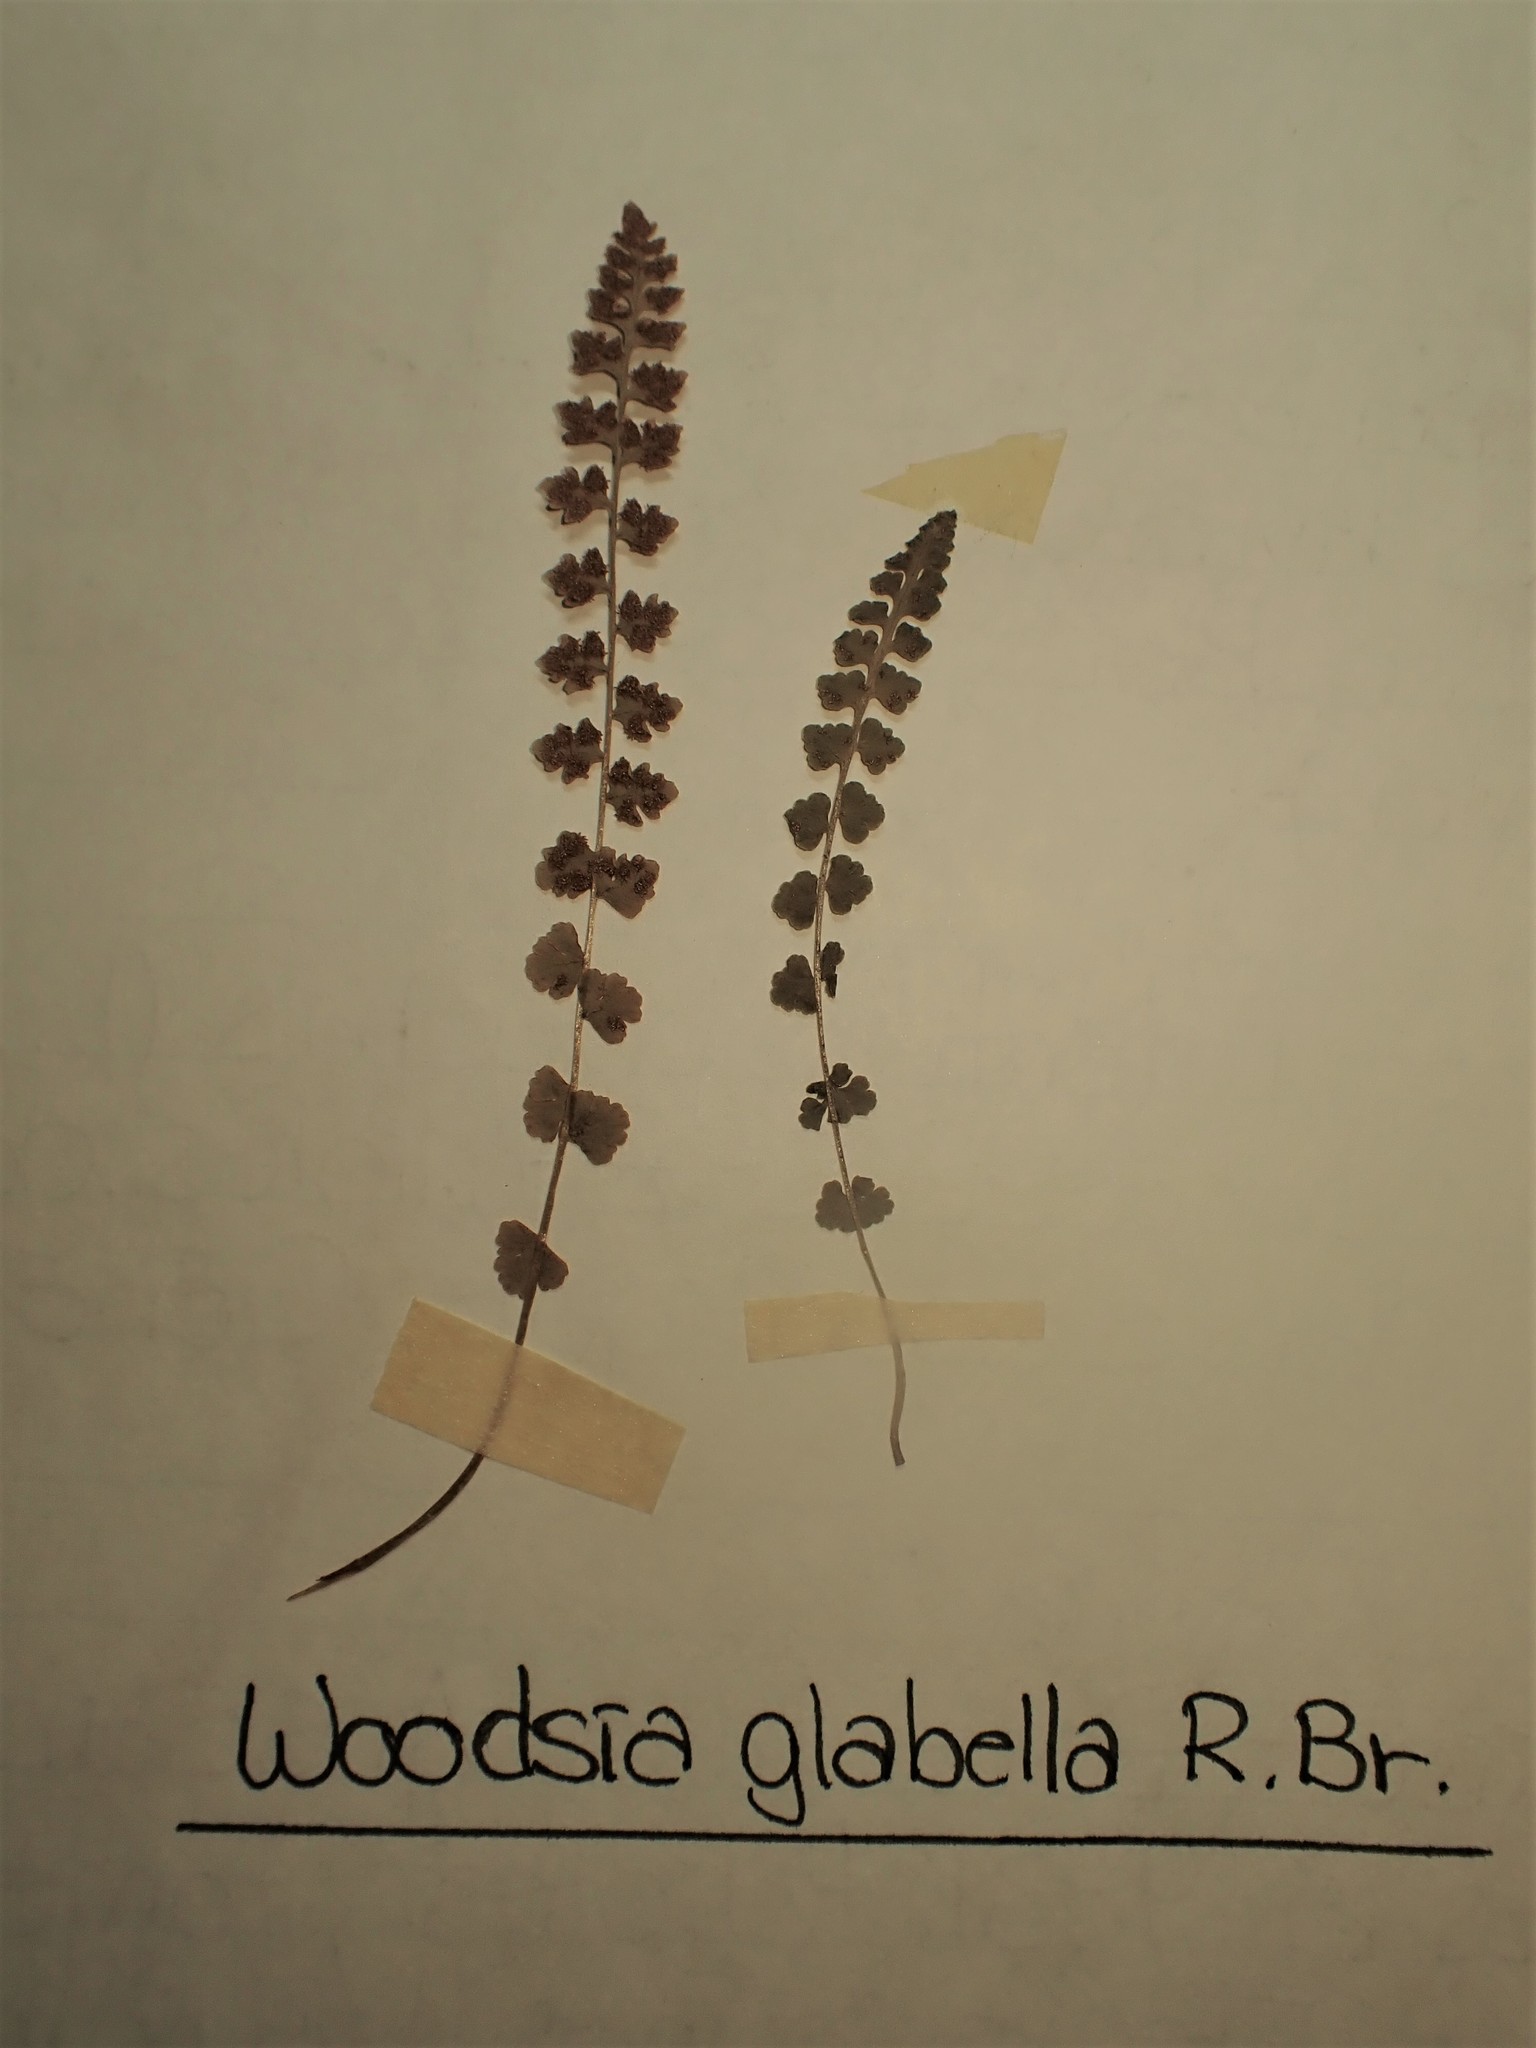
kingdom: Plantae
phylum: Tracheophyta
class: Polypodiopsida
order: Polypodiales
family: Woodsiaceae
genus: Woodsia
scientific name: Woodsia glabella
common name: Smooth woodsia
